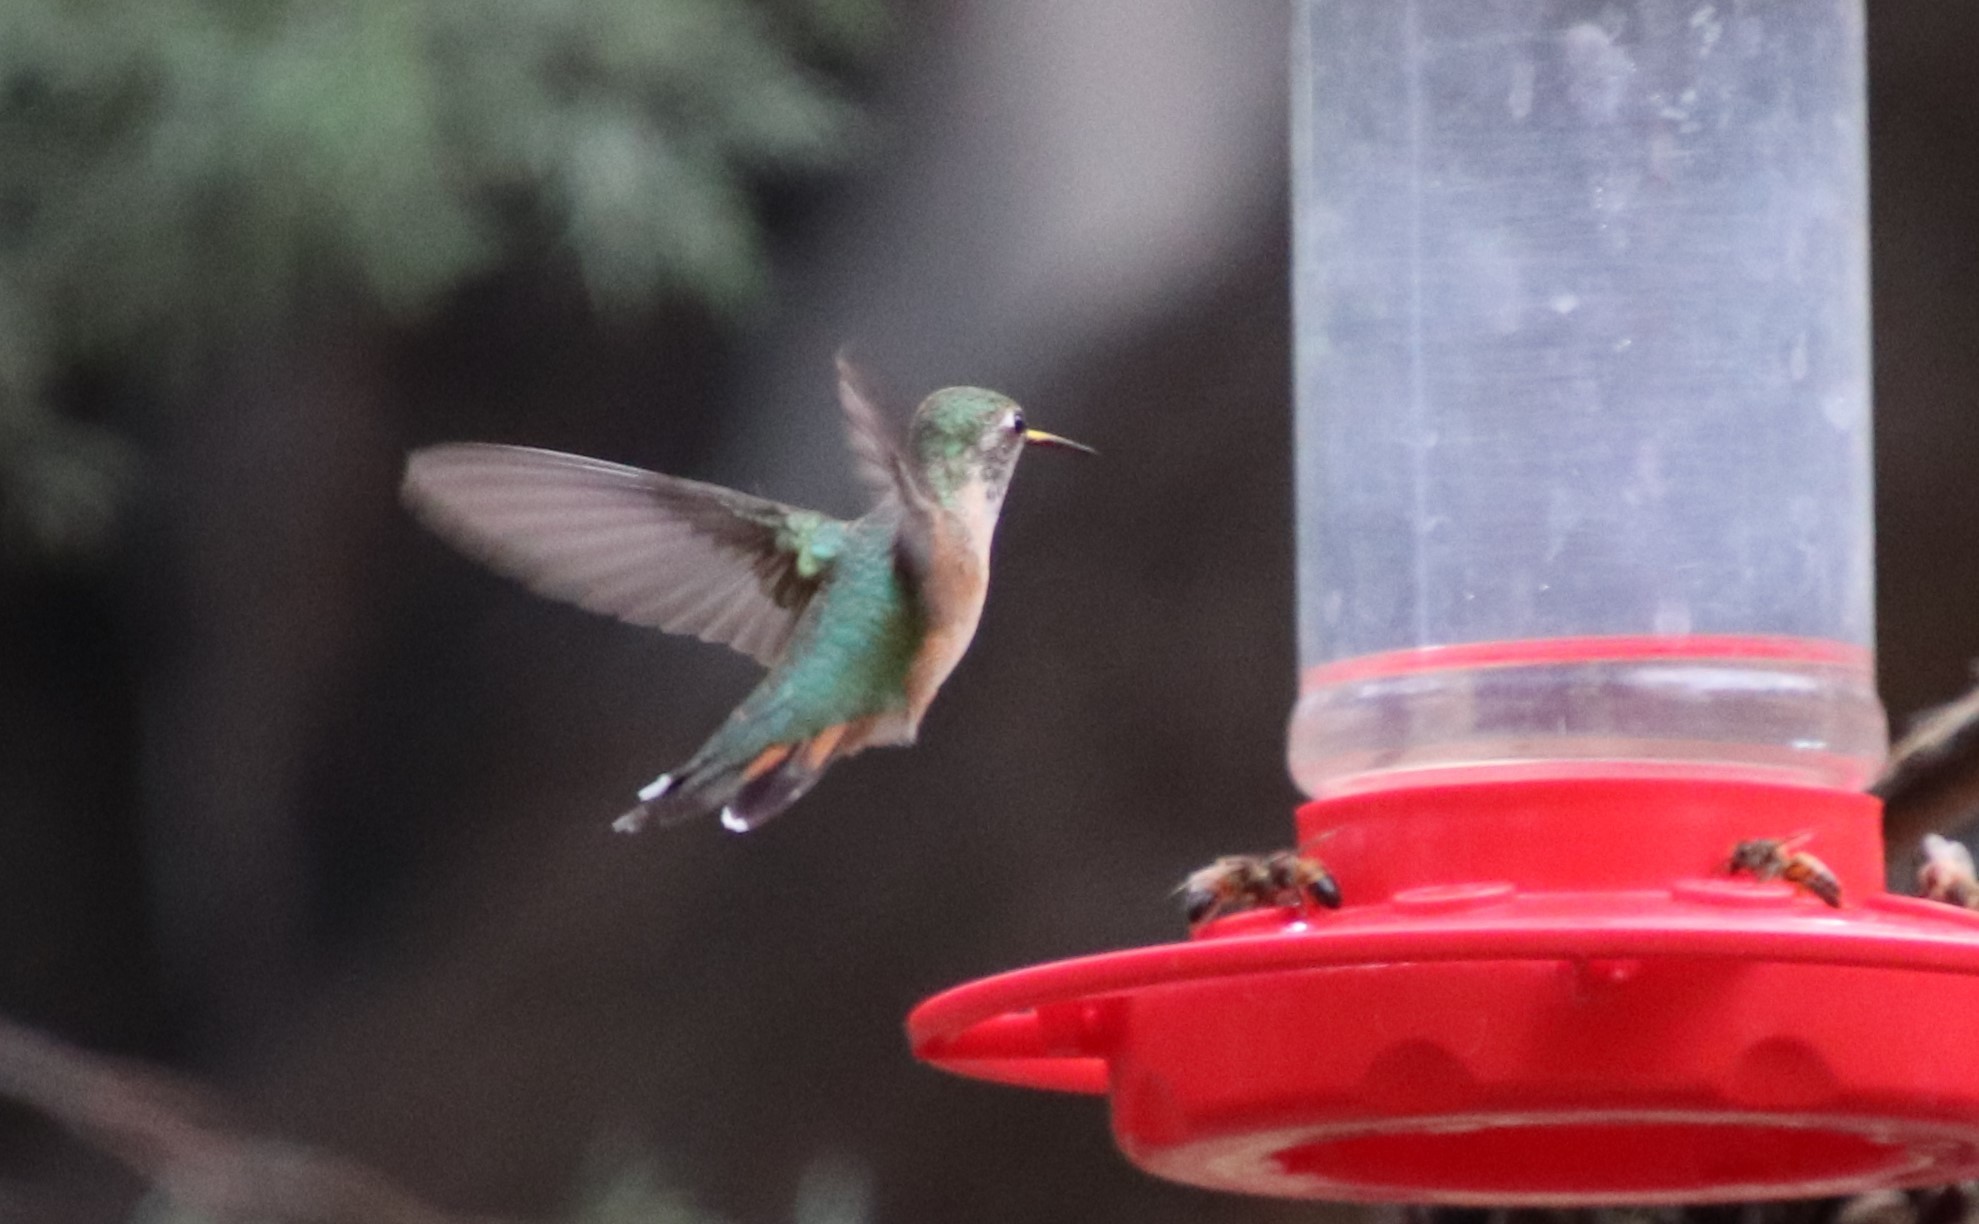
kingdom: Animalia
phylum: Chordata
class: Aves
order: Apodiformes
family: Trochilidae
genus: Selasphorus
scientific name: Selasphorus platycercus
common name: Broad-tailed hummingbird
